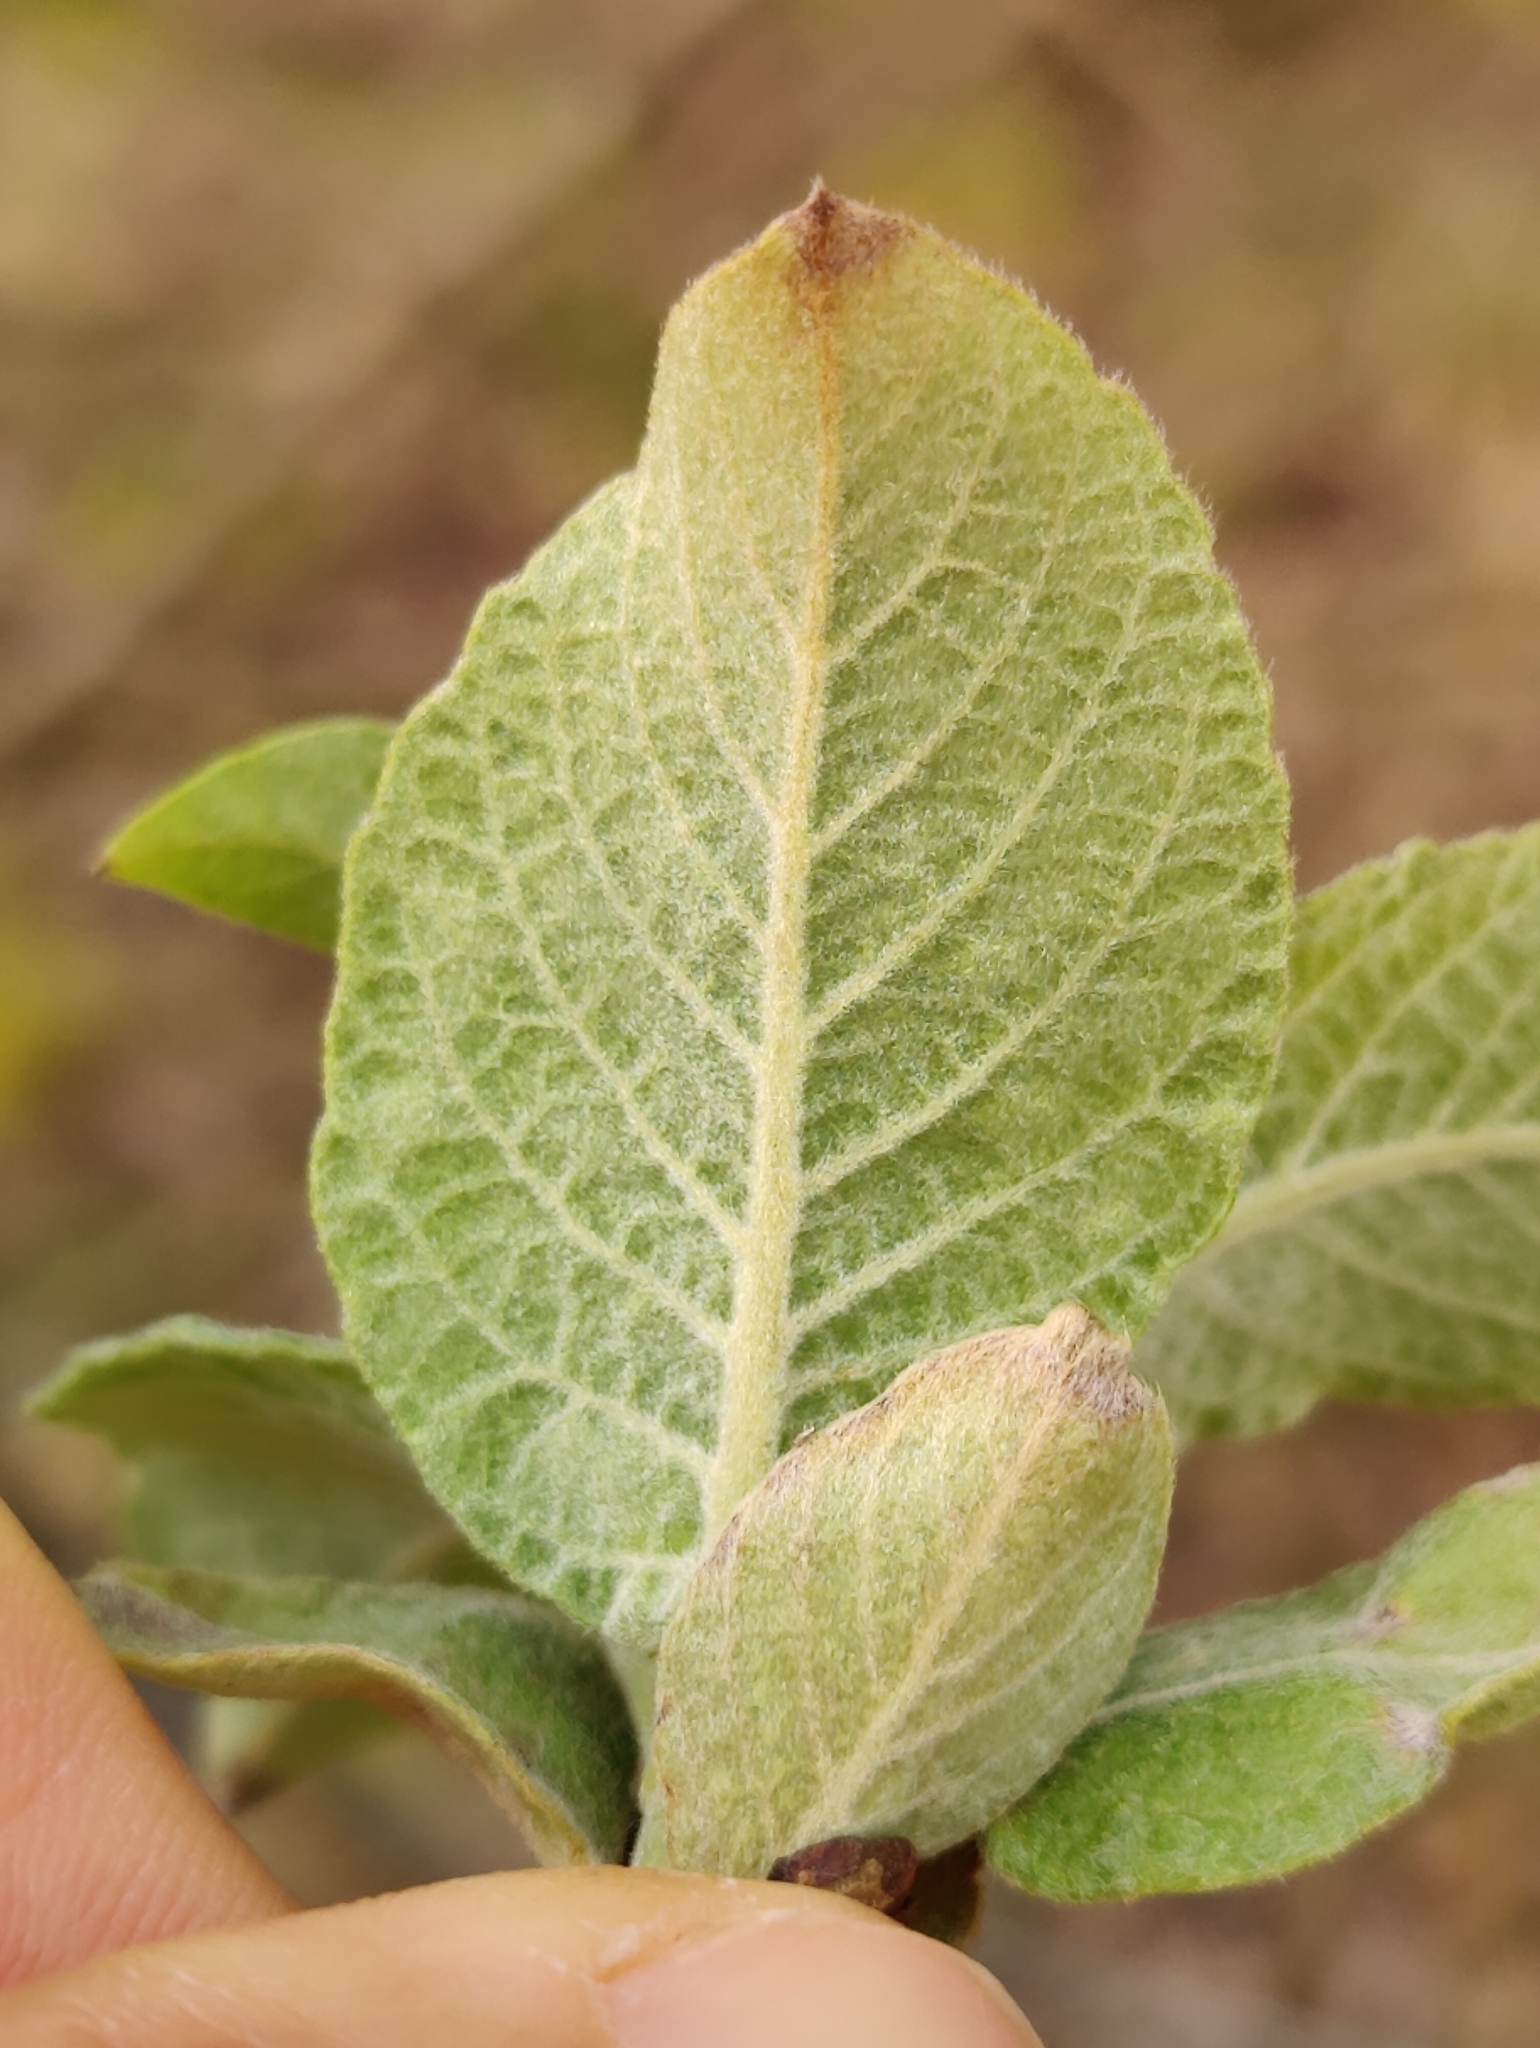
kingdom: Plantae
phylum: Tracheophyta
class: Magnoliopsida
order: Malpighiales
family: Salicaceae
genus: Salix
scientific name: Salix caprea
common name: Goat willow
